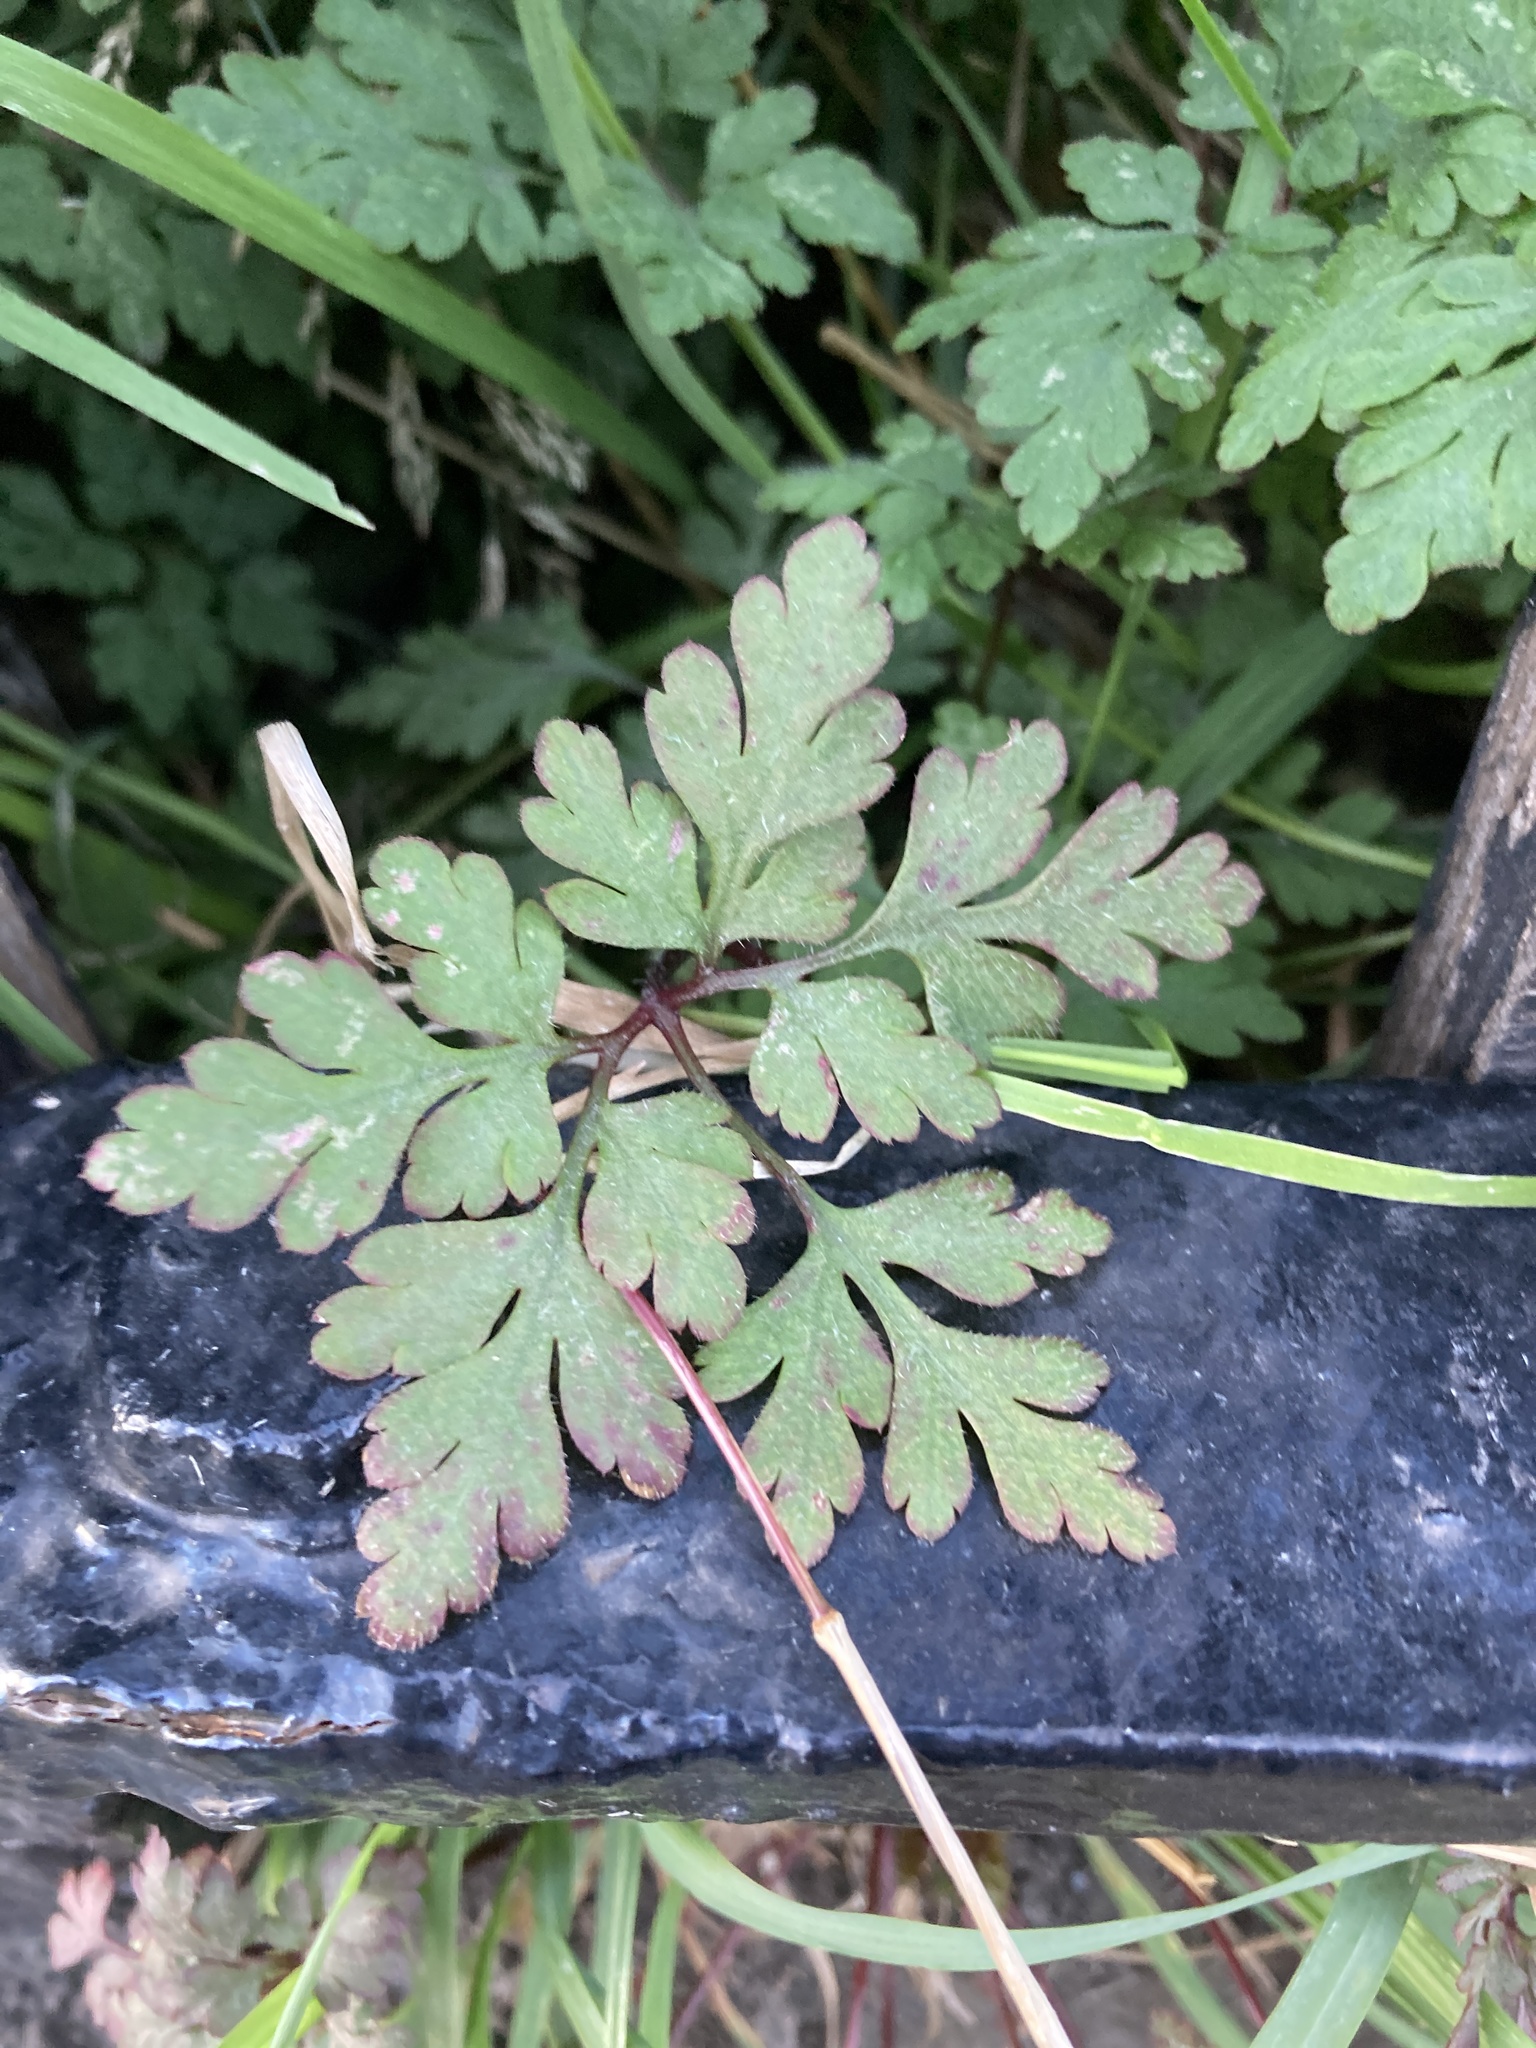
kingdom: Plantae
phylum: Tracheophyta
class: Magnoliopsida
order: Geraniales
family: Geraniaceae
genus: Geranium
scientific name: Geranium robertianum
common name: Herb-robert
